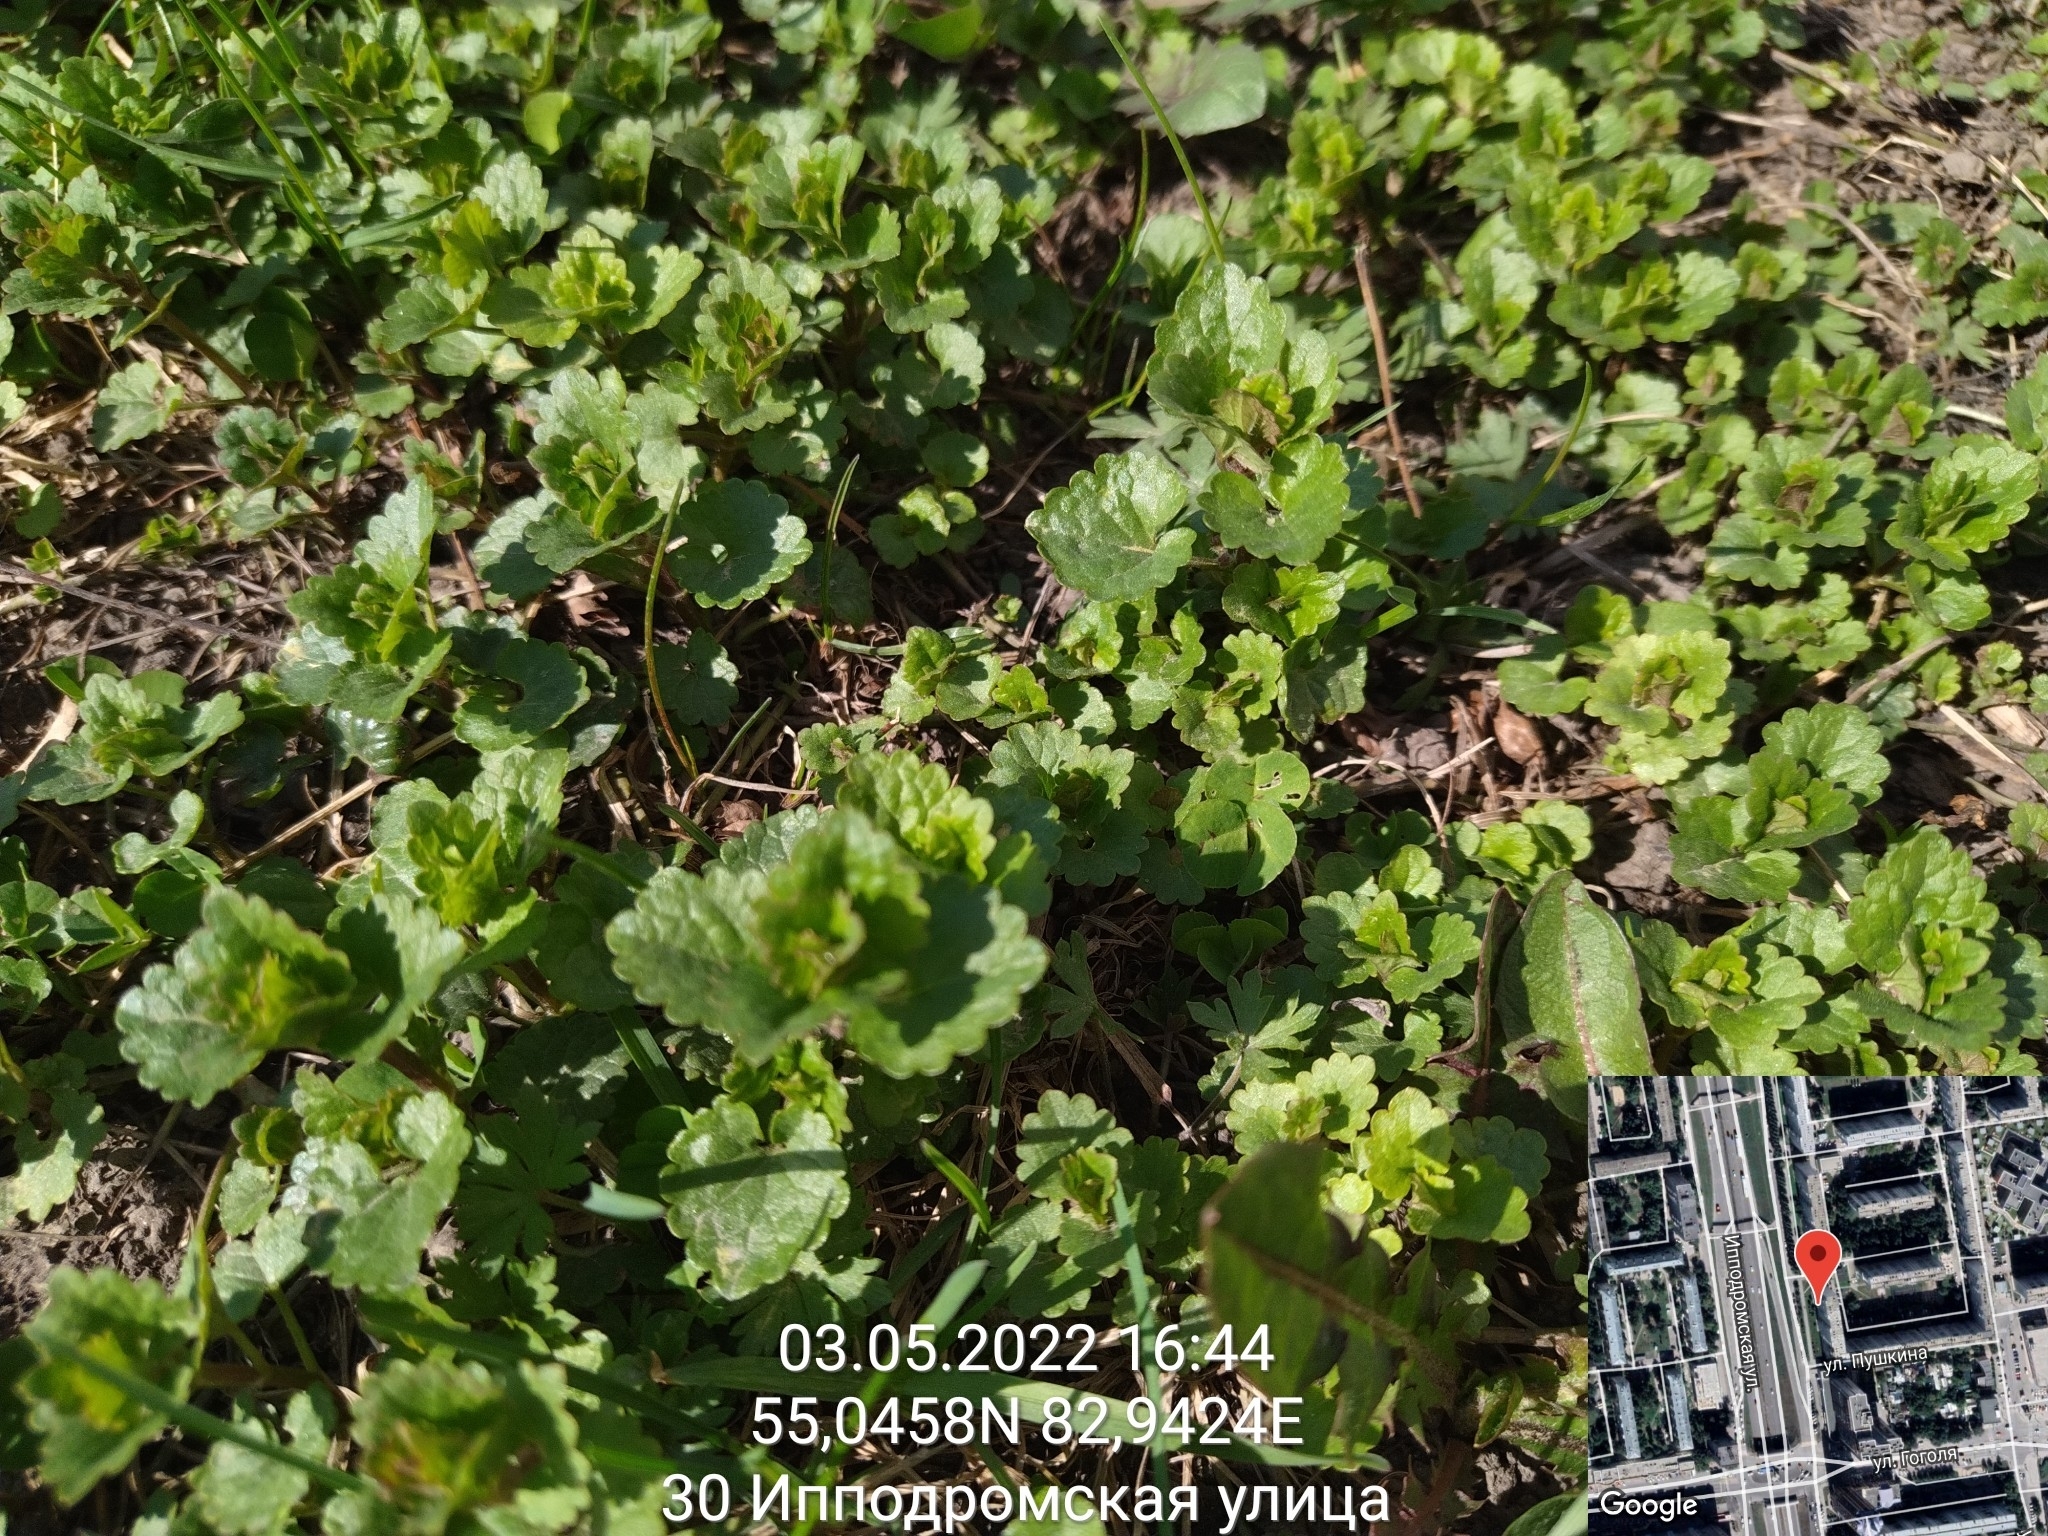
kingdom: Plantae
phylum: Tracheophyta
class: Magnoliopsida
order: Lamiales
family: Lamiaceae
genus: Glechoma
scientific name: Glechoma hederacea
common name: Ground ivy
